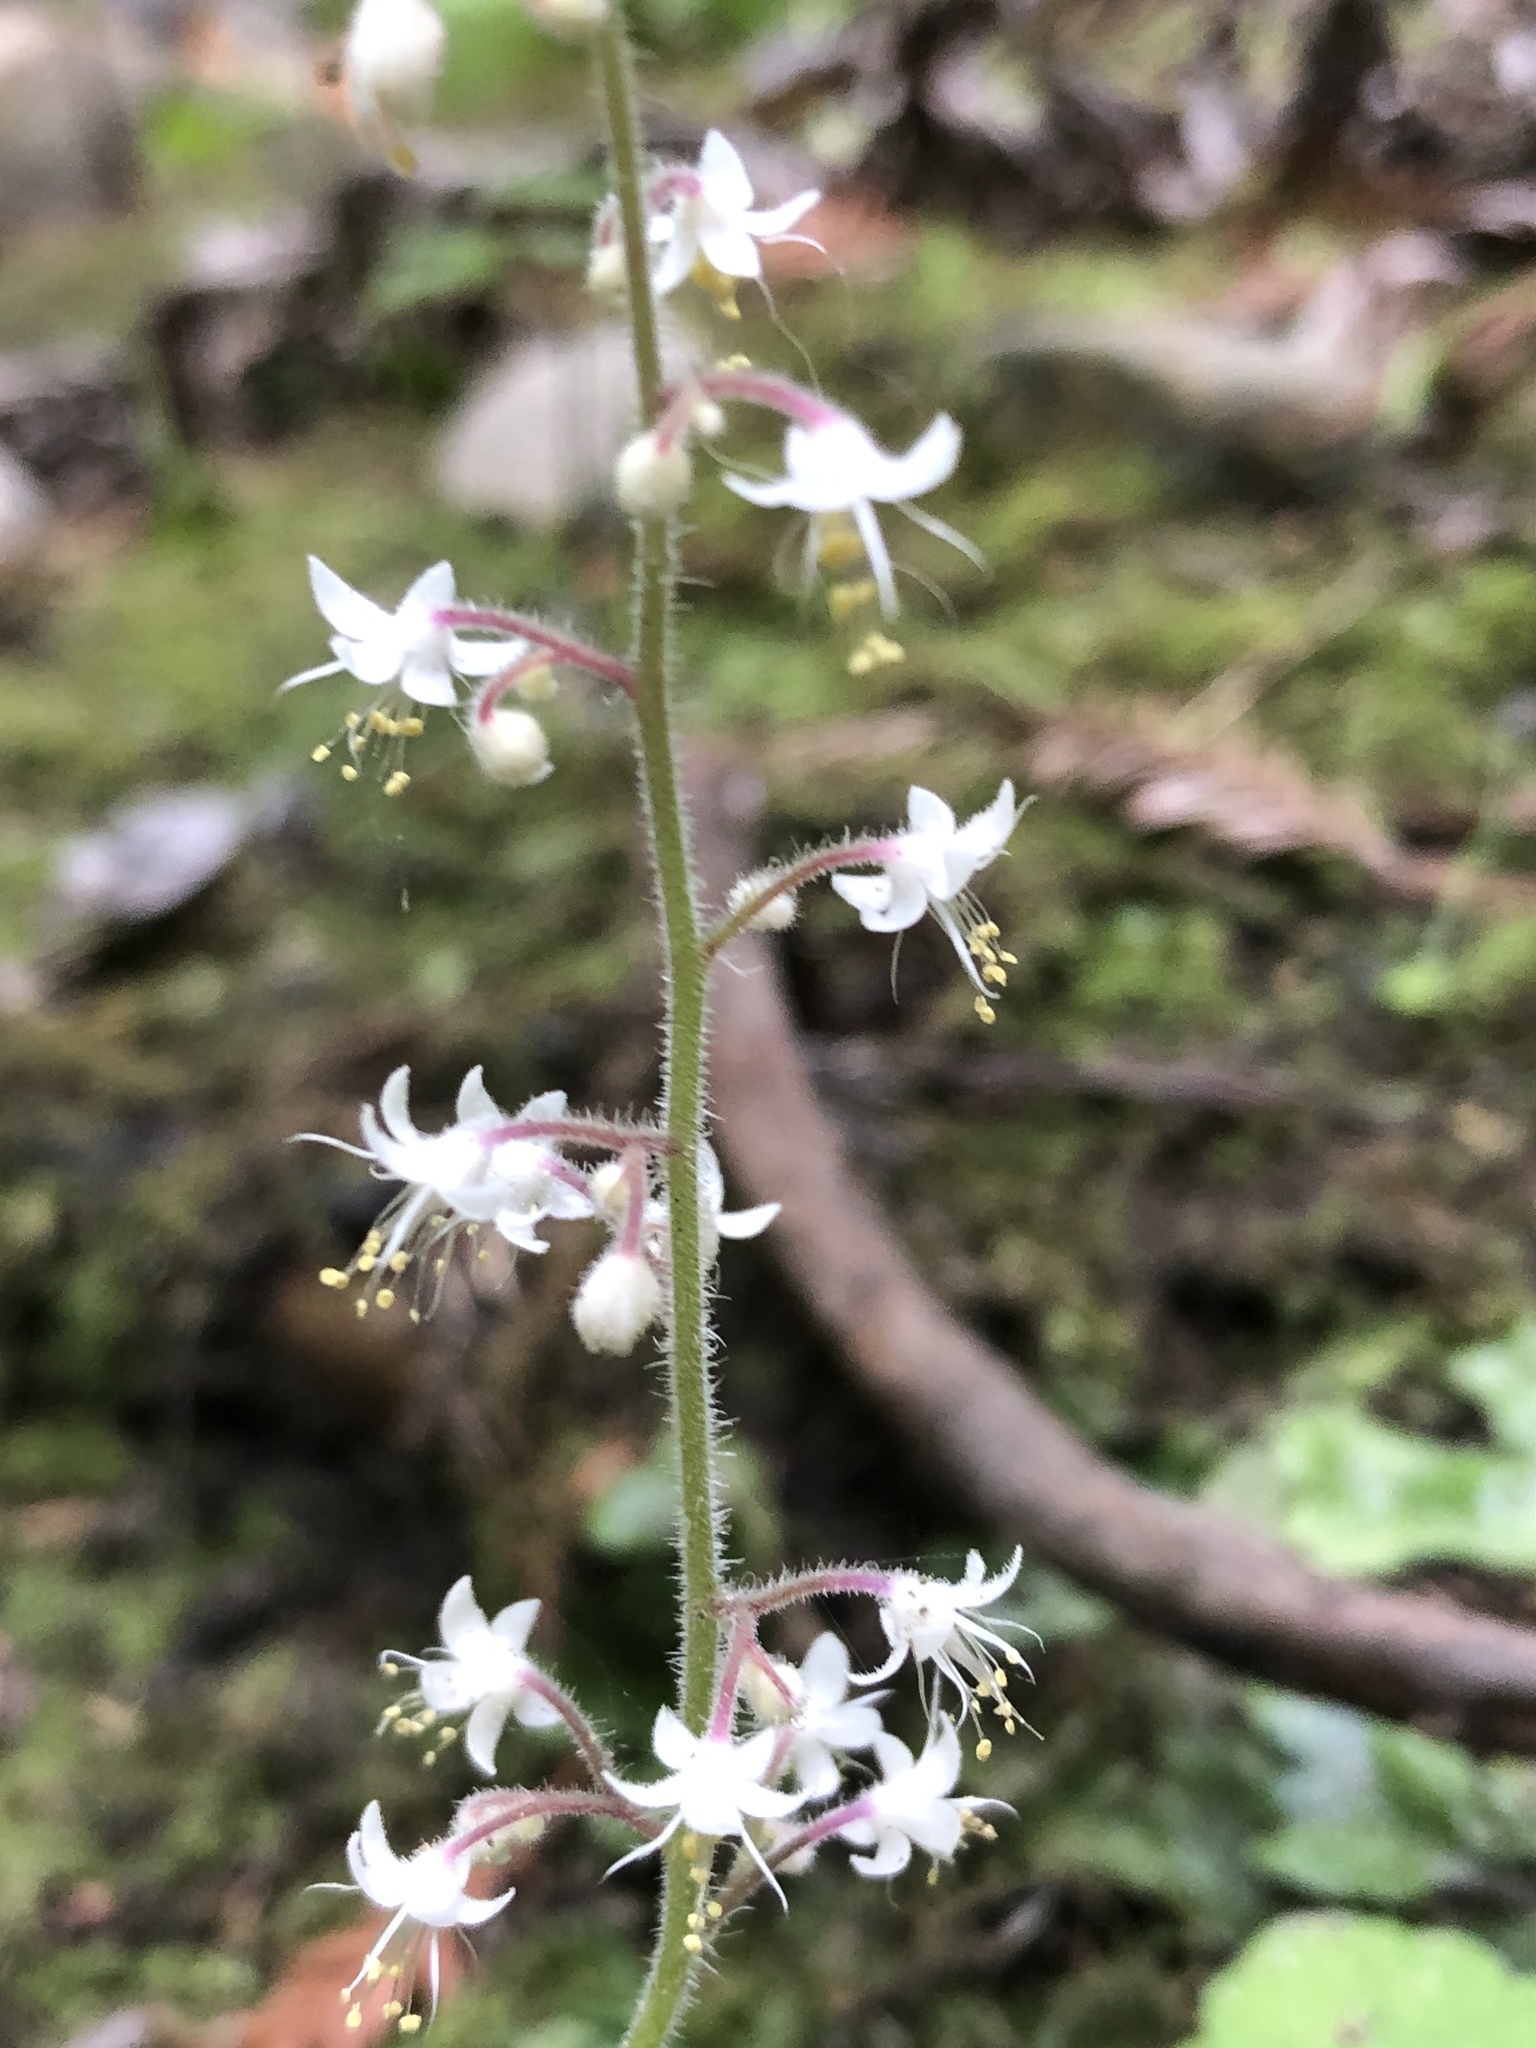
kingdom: Plantae
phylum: Tracheophyta
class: Magnoliopsida
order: Saxifragales
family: Saxifragaceae
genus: Tiarella
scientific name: Tiarella trifoliata
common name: Sugar-scoop
